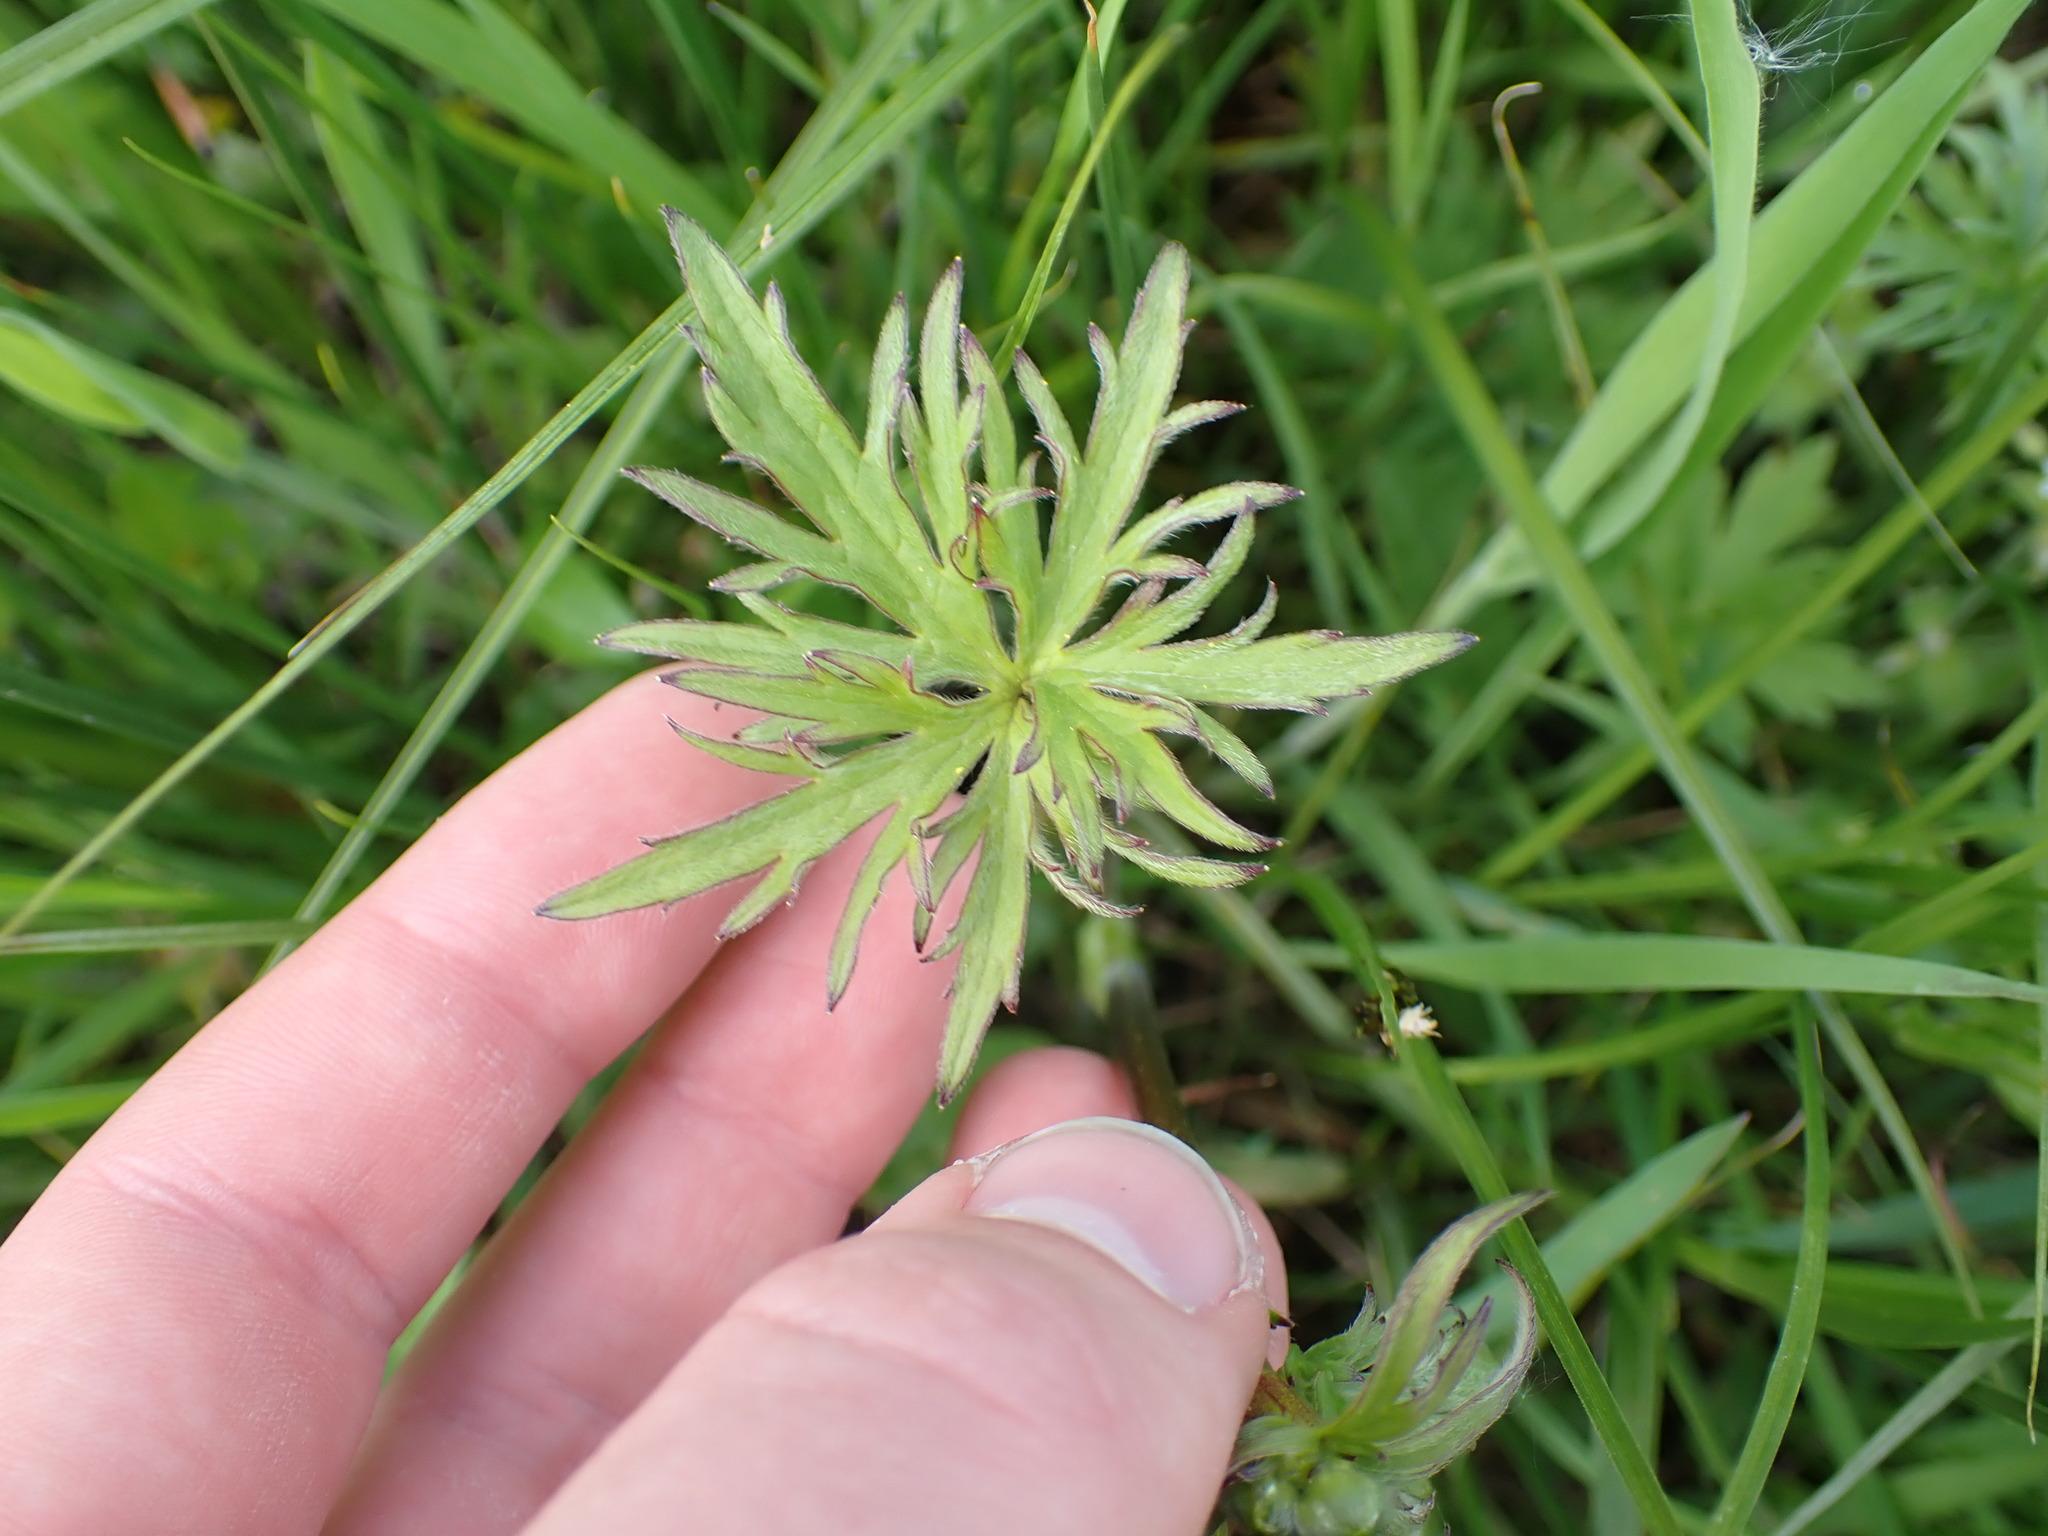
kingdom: Plantae
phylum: Tracheophyta
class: Magnoliopsida
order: Ranunculales
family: Ranunculaceae
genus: Ranunculus
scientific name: Ranunculus acris
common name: Meadow buttercup
